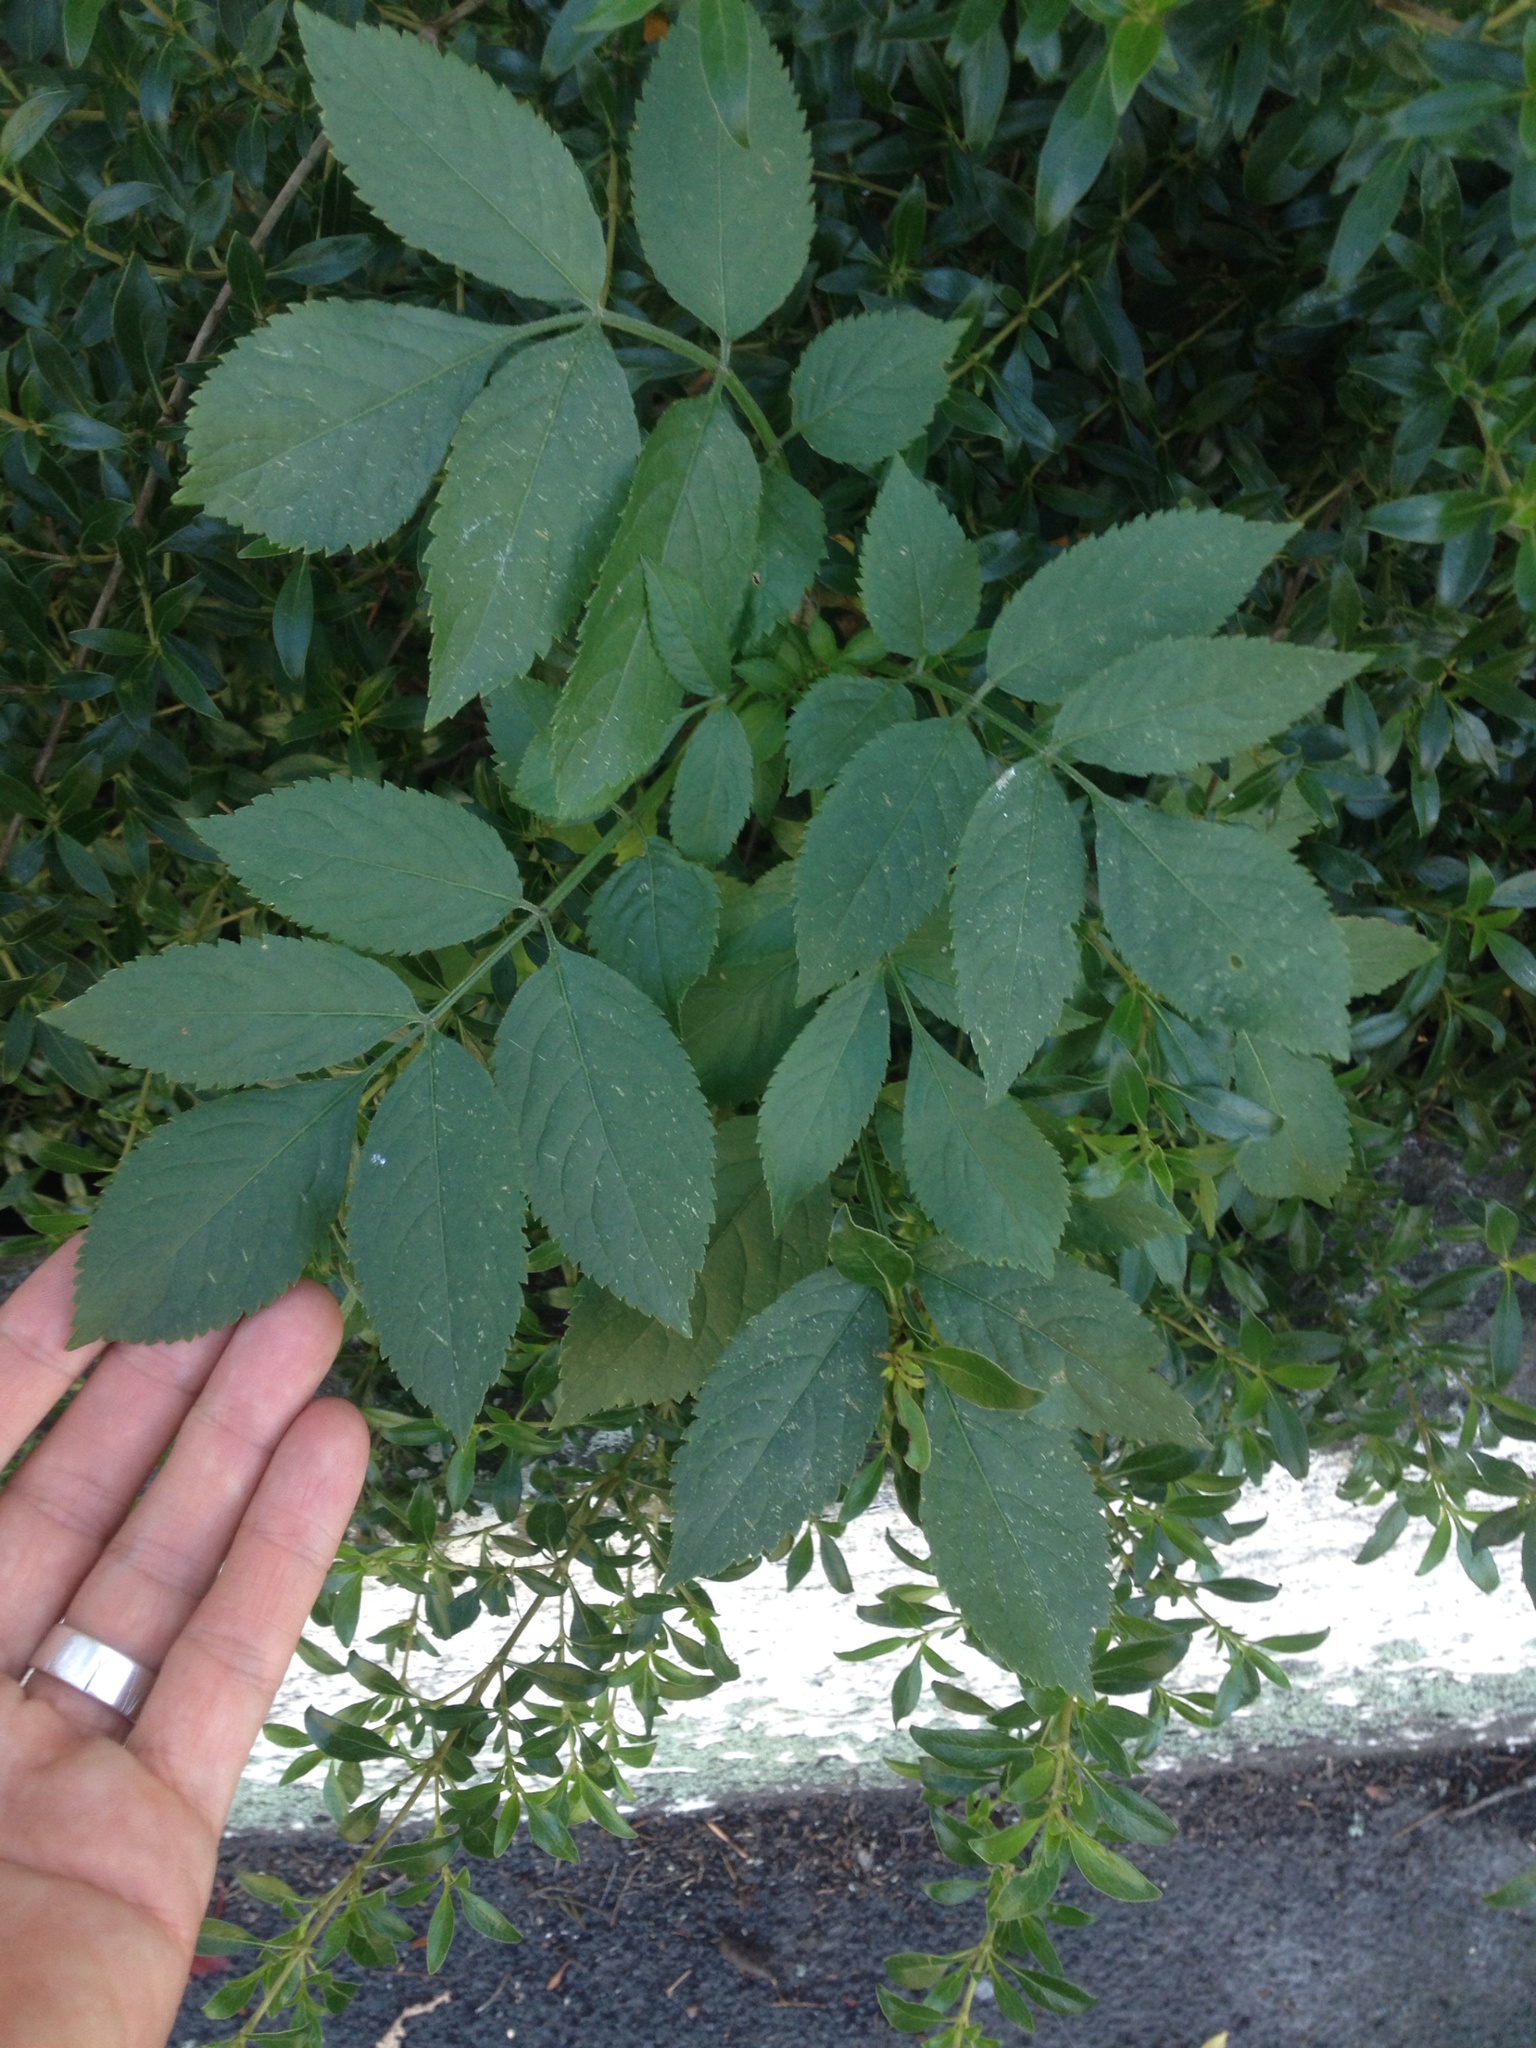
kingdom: Plantae
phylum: Tracheophyta
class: Magnoliopsida
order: Dipsacales
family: Viburnaceae
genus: Sambucus
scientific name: Sambucus nigra
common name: Elder
